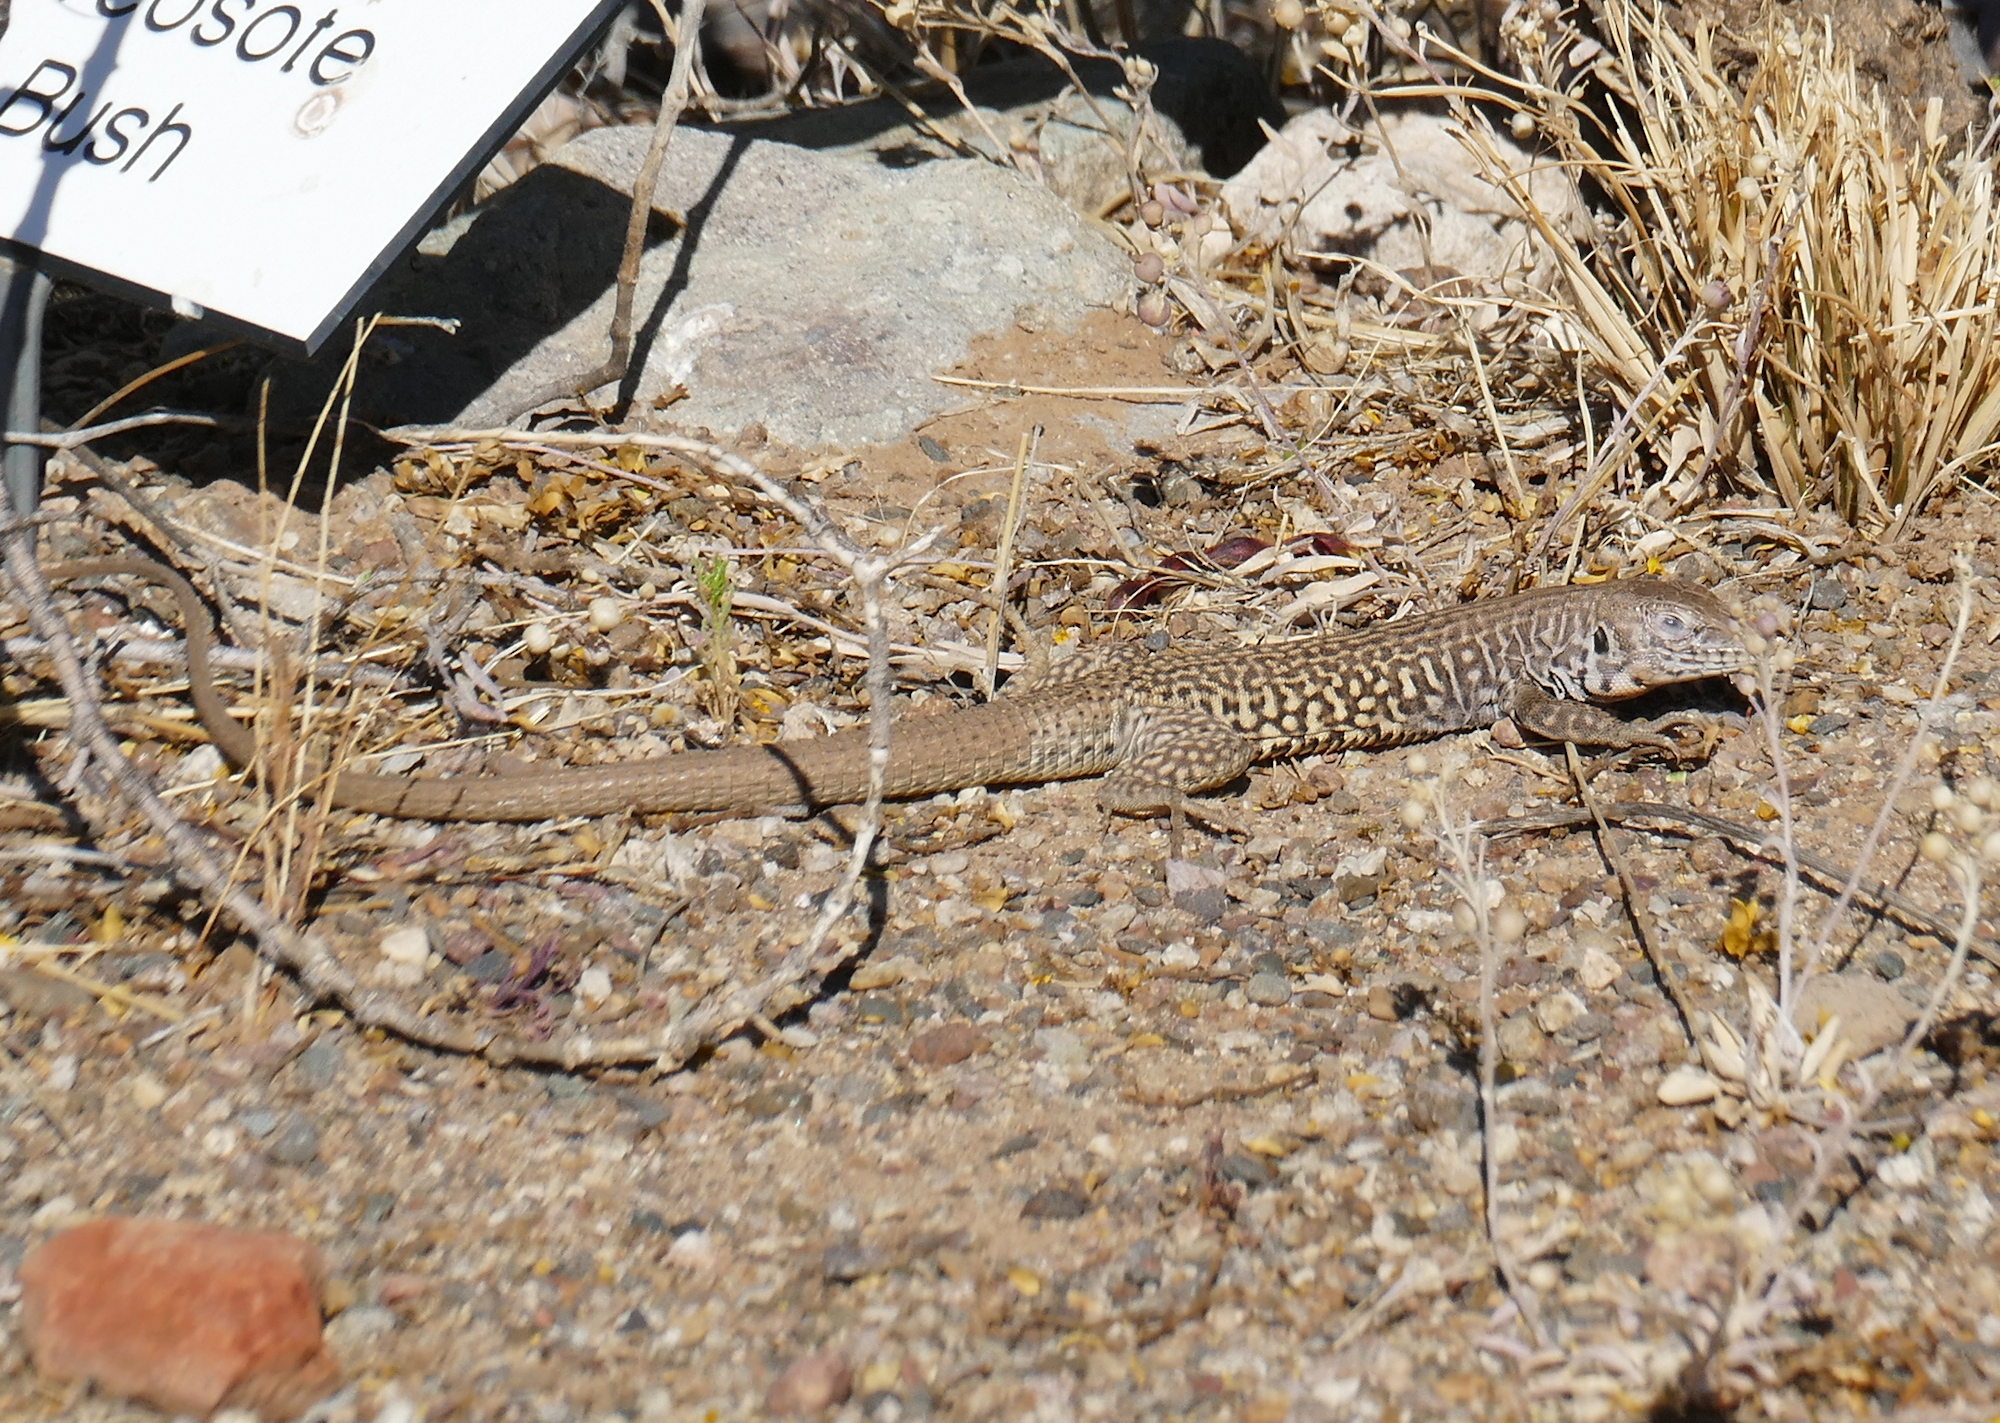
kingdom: Animalia
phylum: Chordata
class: Squamata
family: Teiidae
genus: Aspidoscelis
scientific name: Aspidoscelis marmoratus
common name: Eastern marbled whiptail [reticuloriens]
